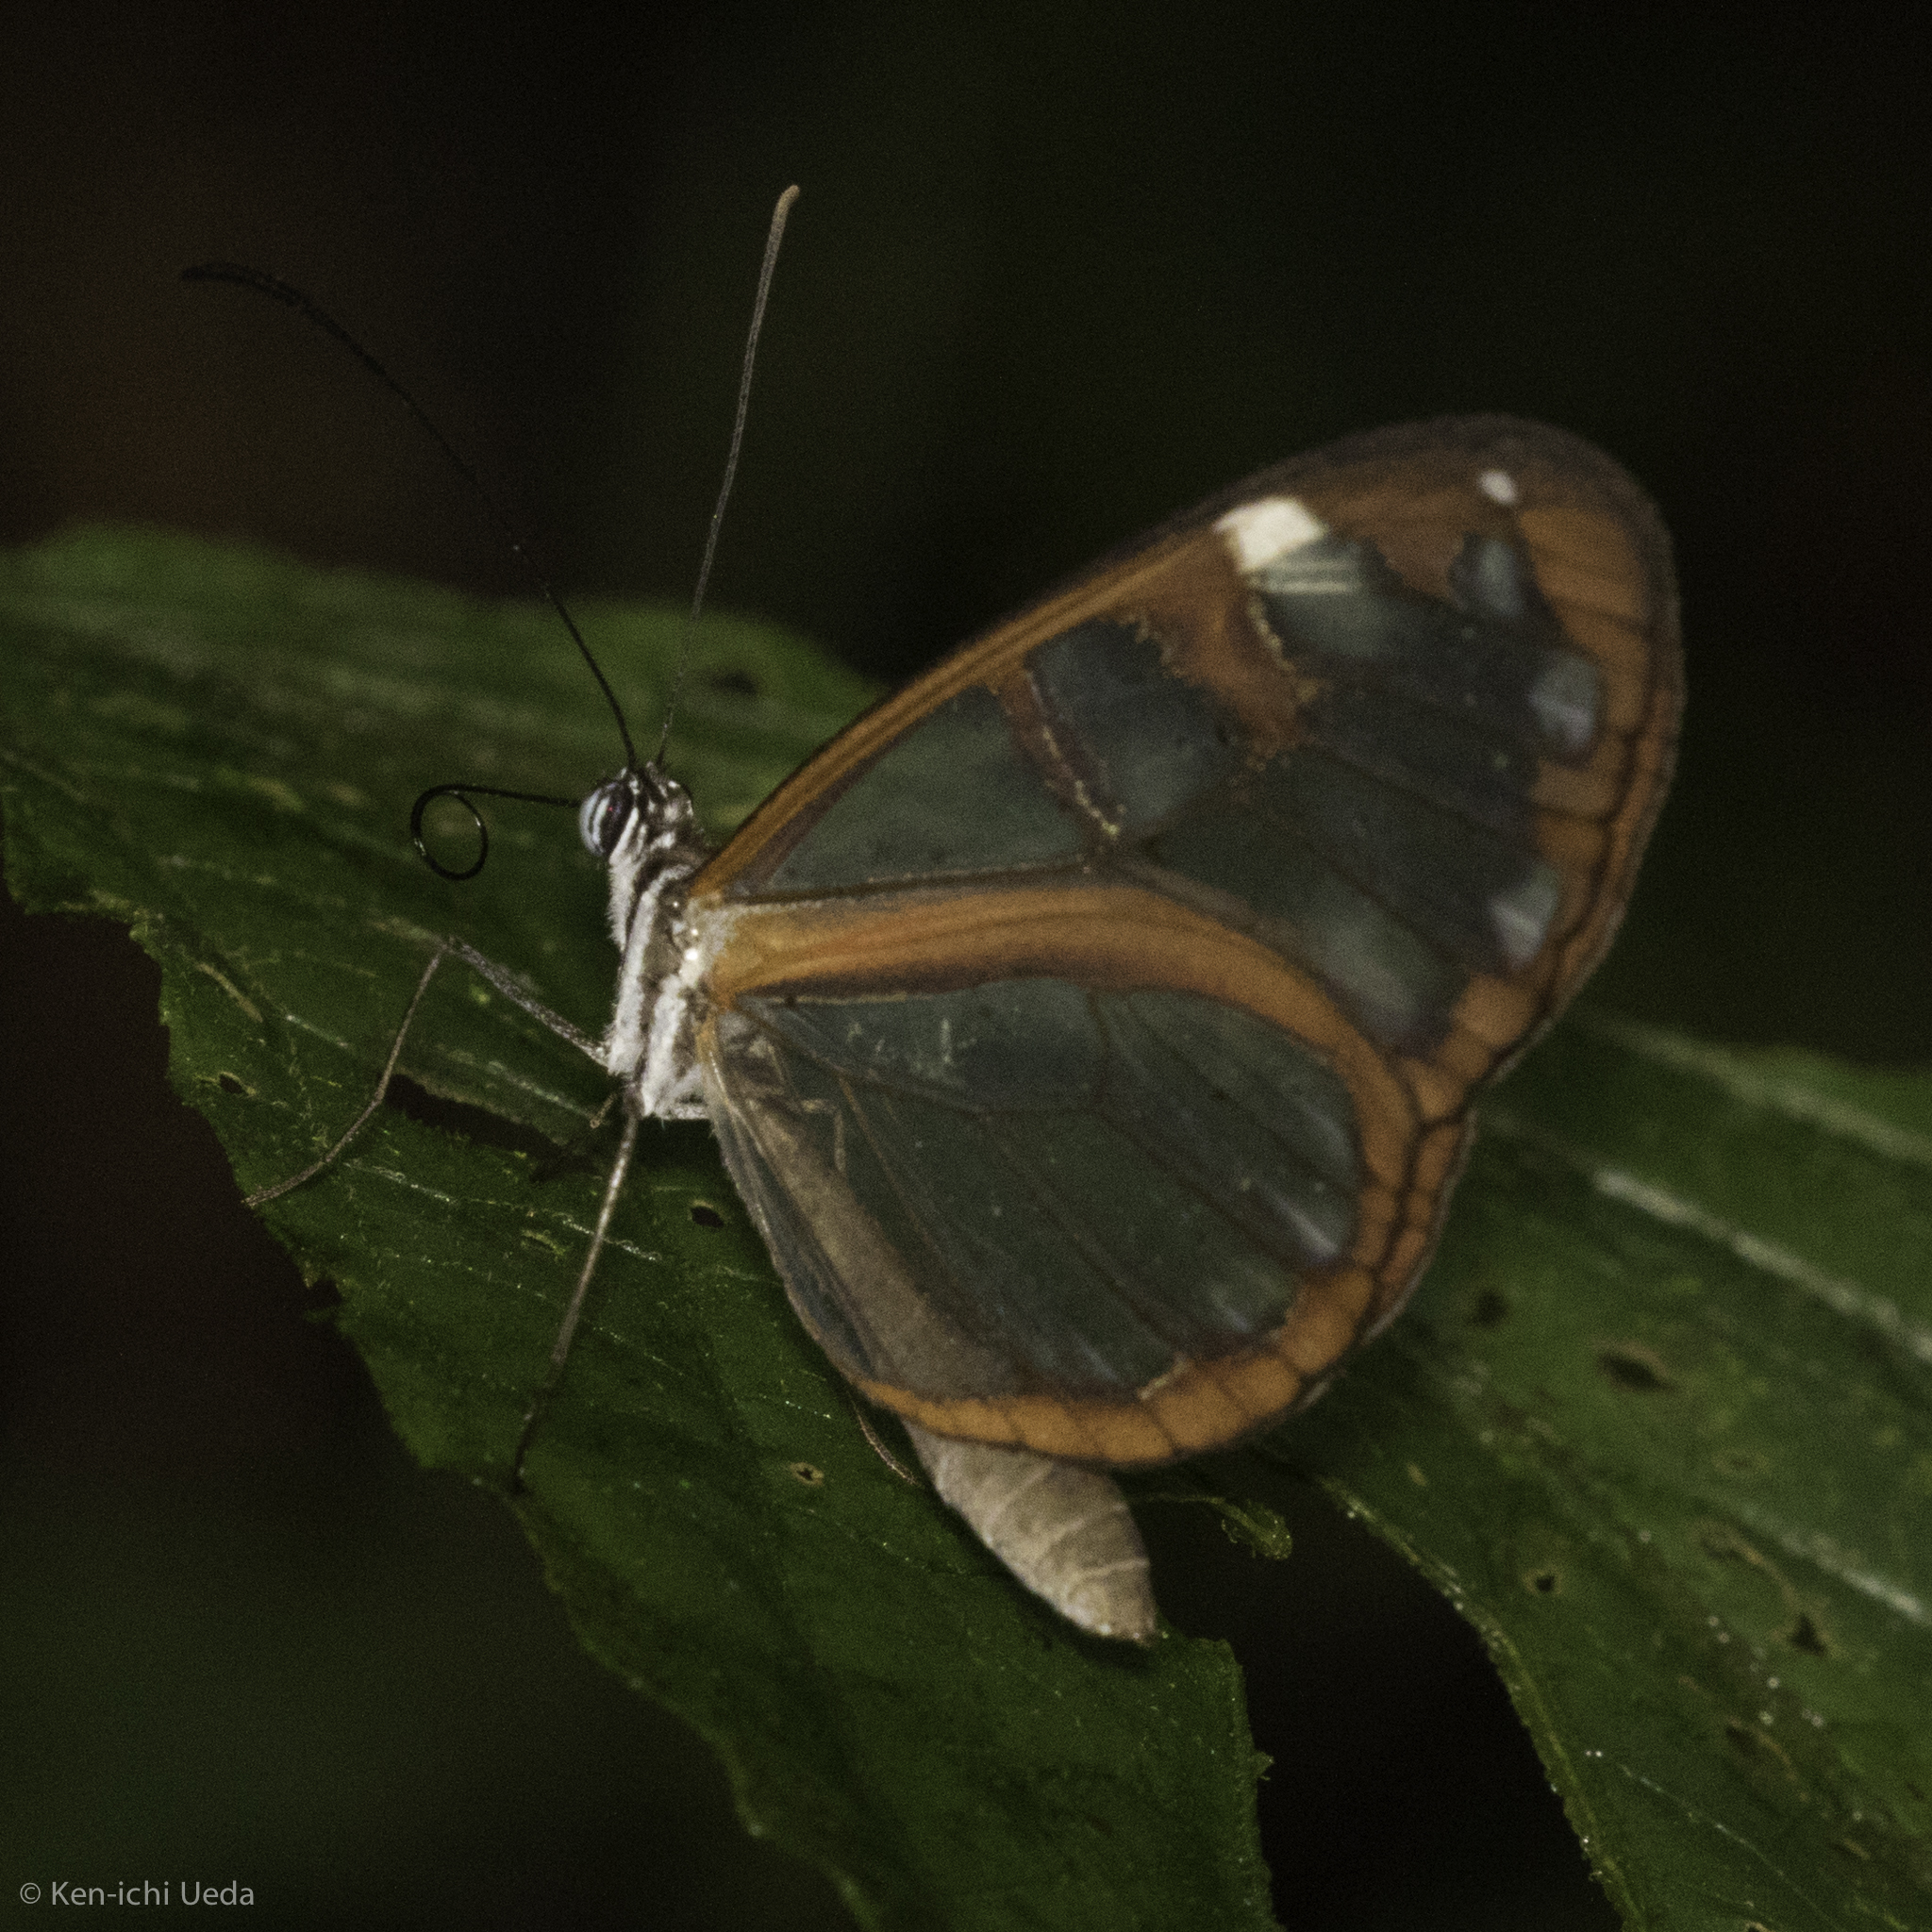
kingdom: Animalia
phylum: Arthropoda
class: Insecta
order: Lepidoptera
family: Nymphalidae
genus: Oleria
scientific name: Oleria vicina
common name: Vicina clearwing
